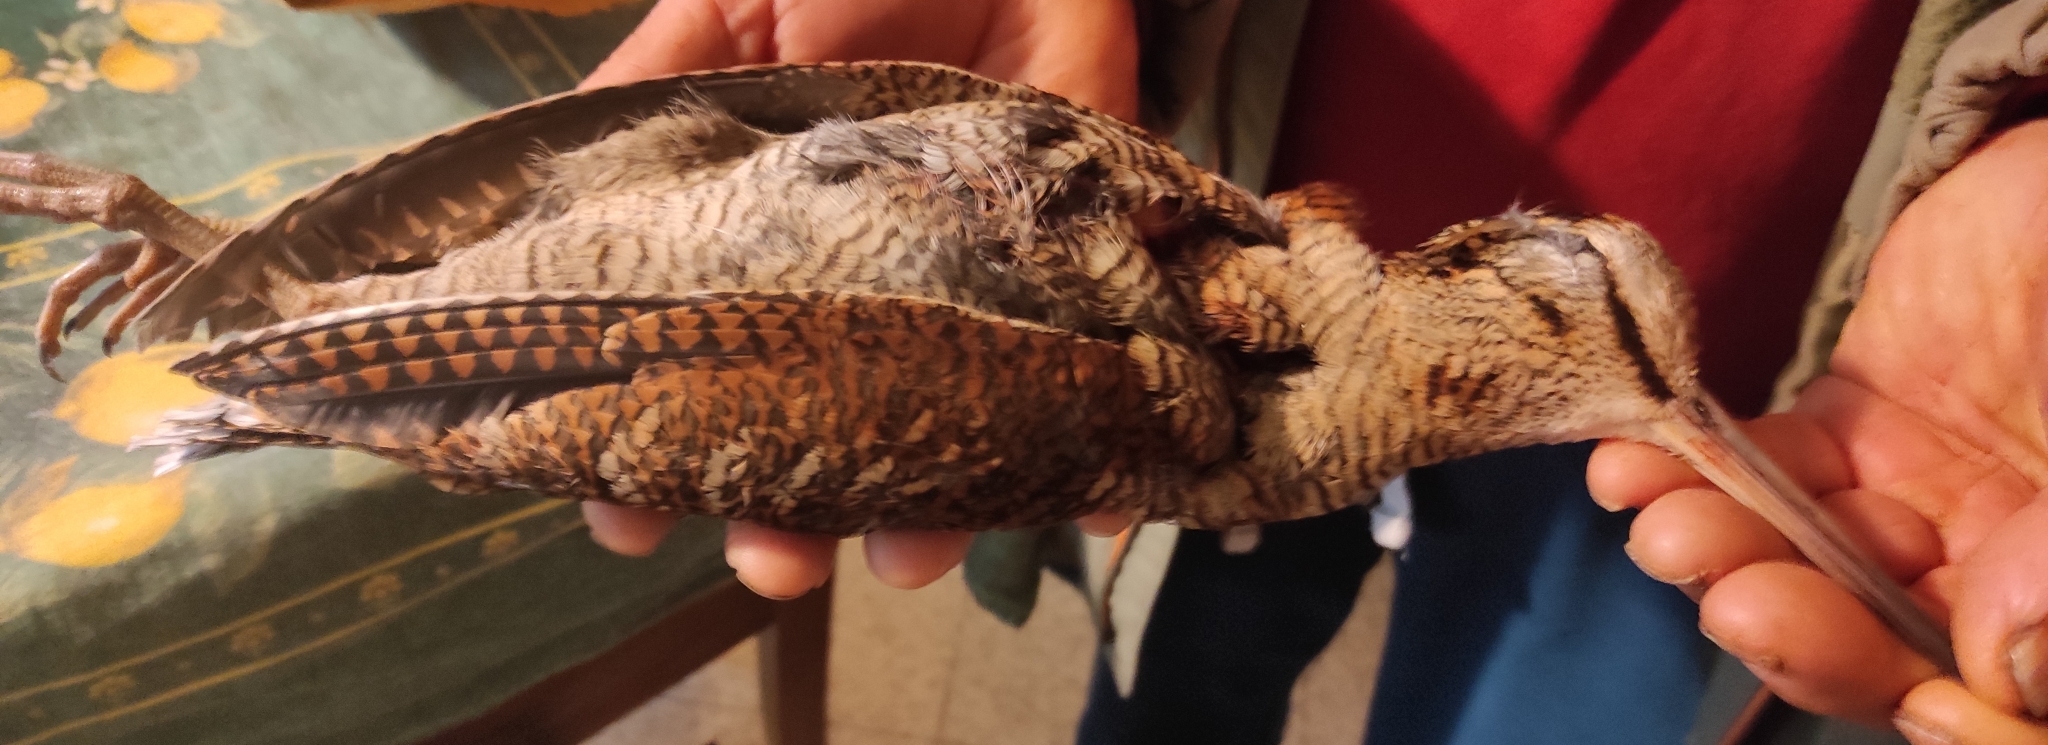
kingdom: Animalia
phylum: Chordata
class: Aves
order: Charadriiformes
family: Scolopacidae
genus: Scolopax
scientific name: Scolopax rusticola
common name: Eurasian woodcock
